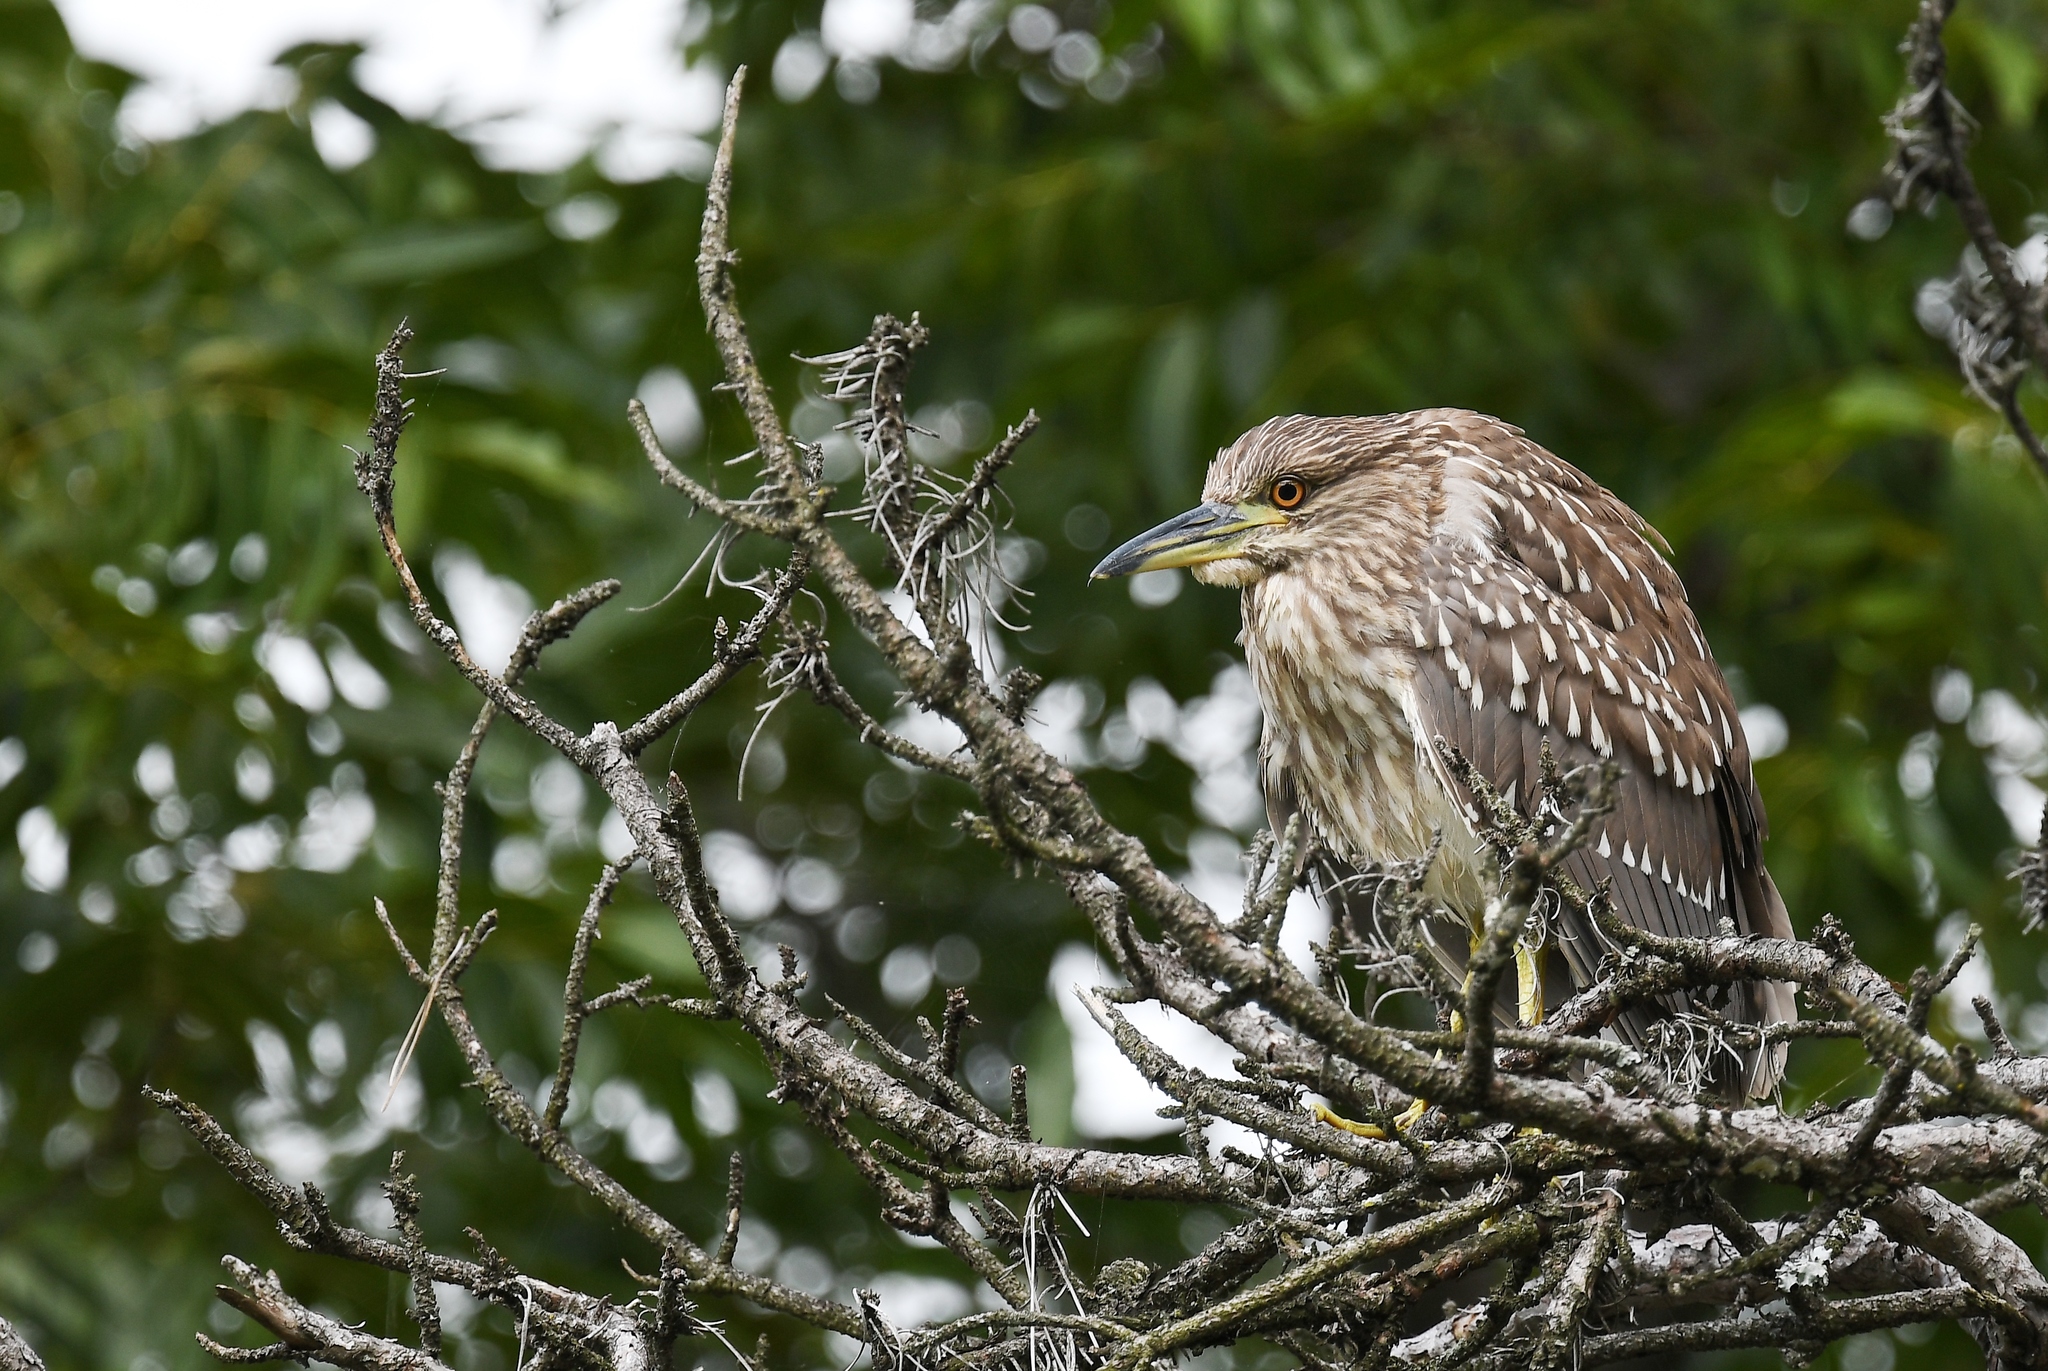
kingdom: Animalia
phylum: Chordata
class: Aves
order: Pelecaniformes
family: Ardeidae
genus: Nycticorax
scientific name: Nycticorax nycticorax
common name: Black-crowned night heron
